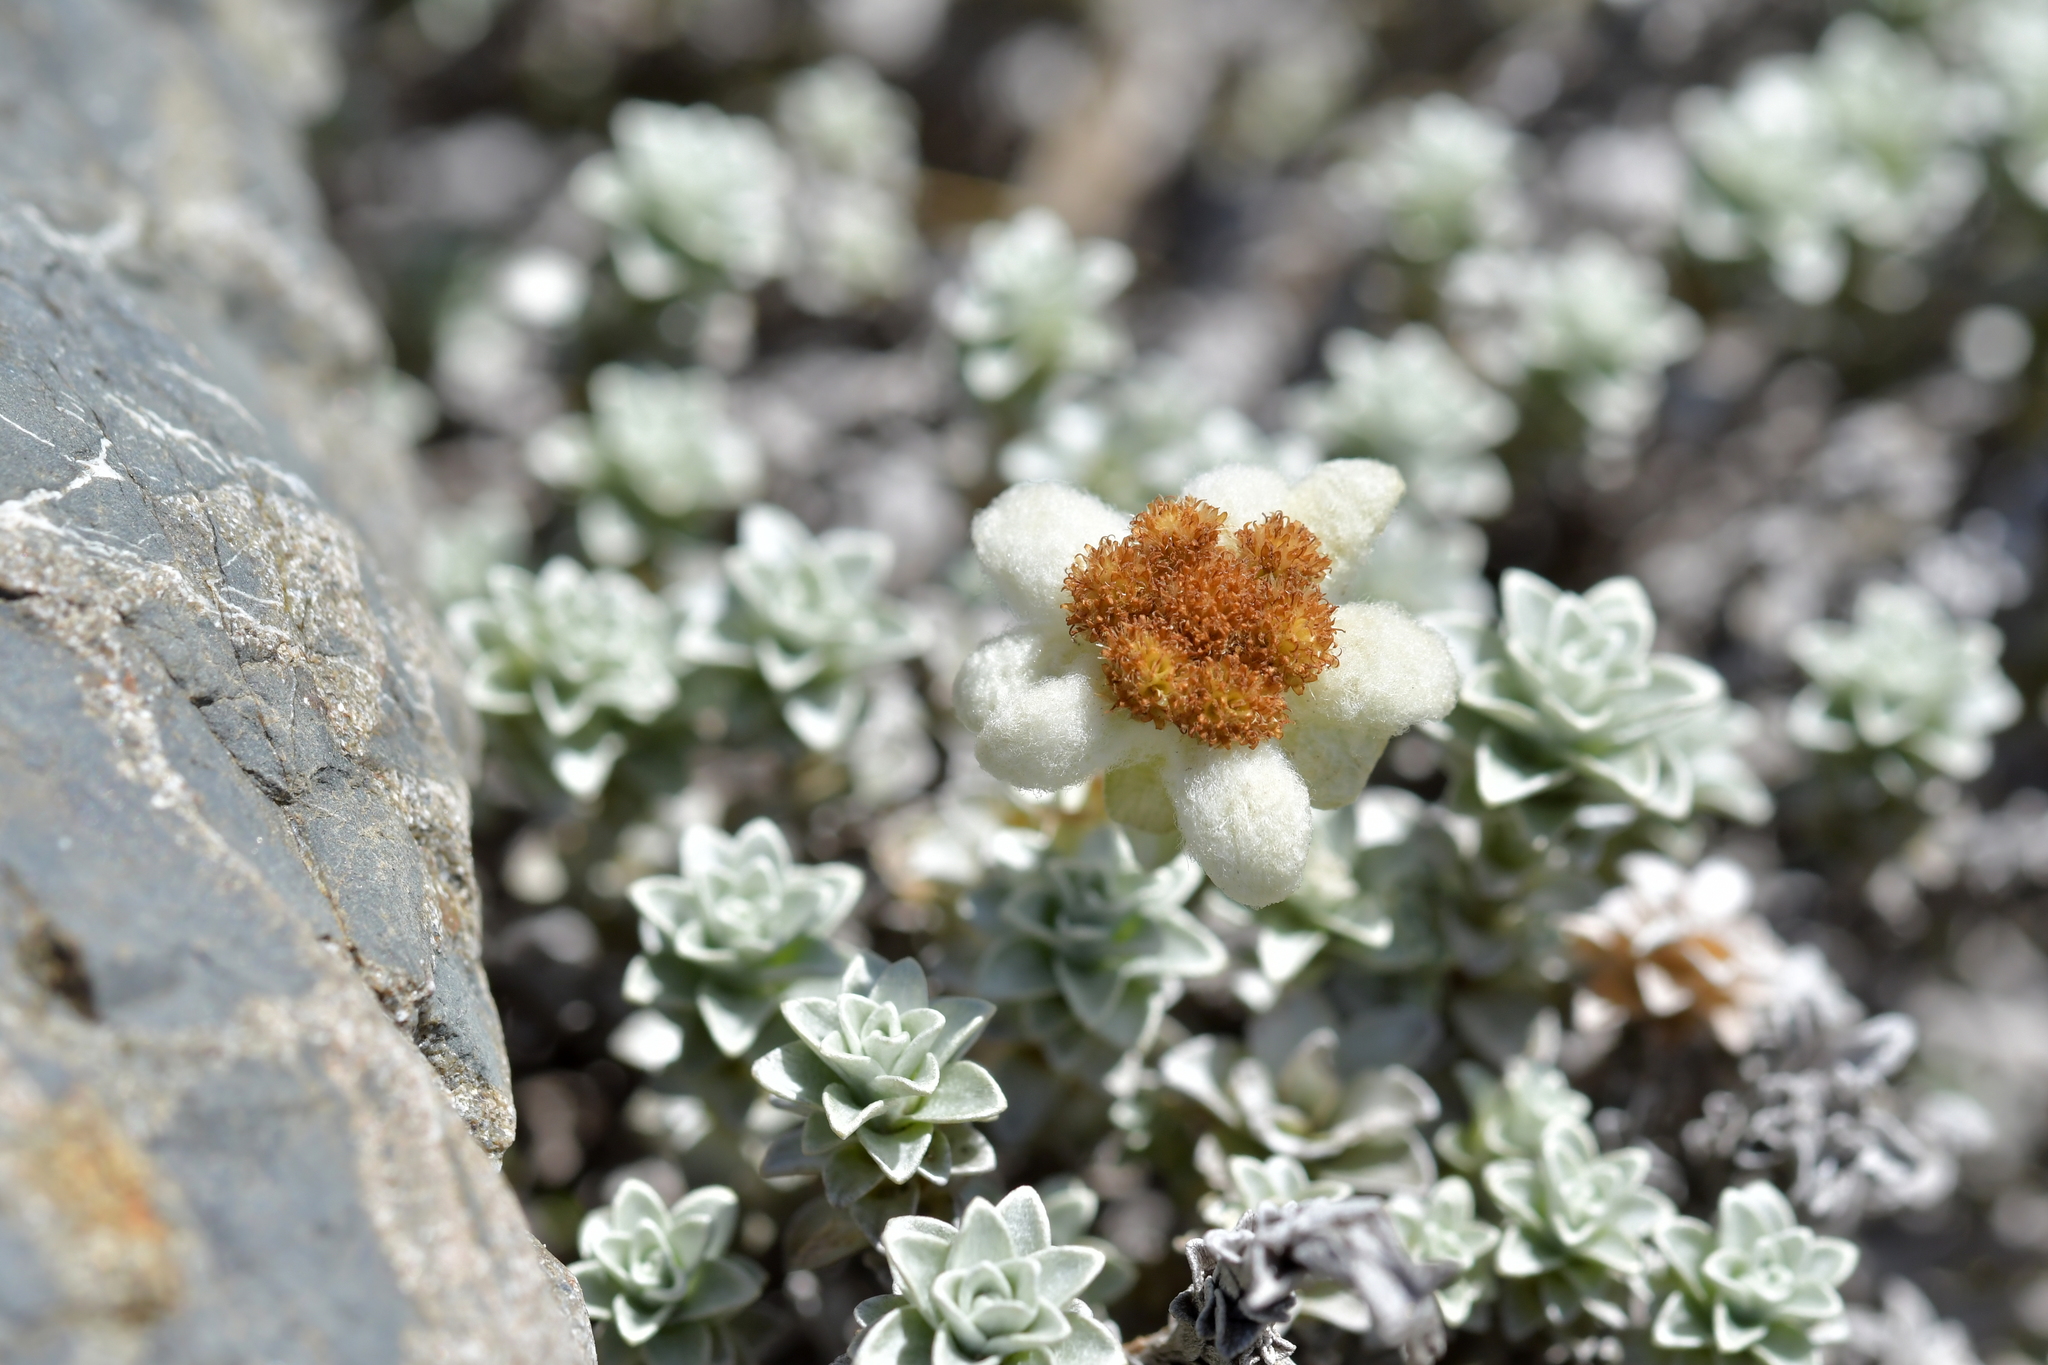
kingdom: Plantae
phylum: Tracheophyta
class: Magnoliopsida
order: Asterales
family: Asteraceae
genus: Leucogenes
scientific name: Leucogenes grandiceps
